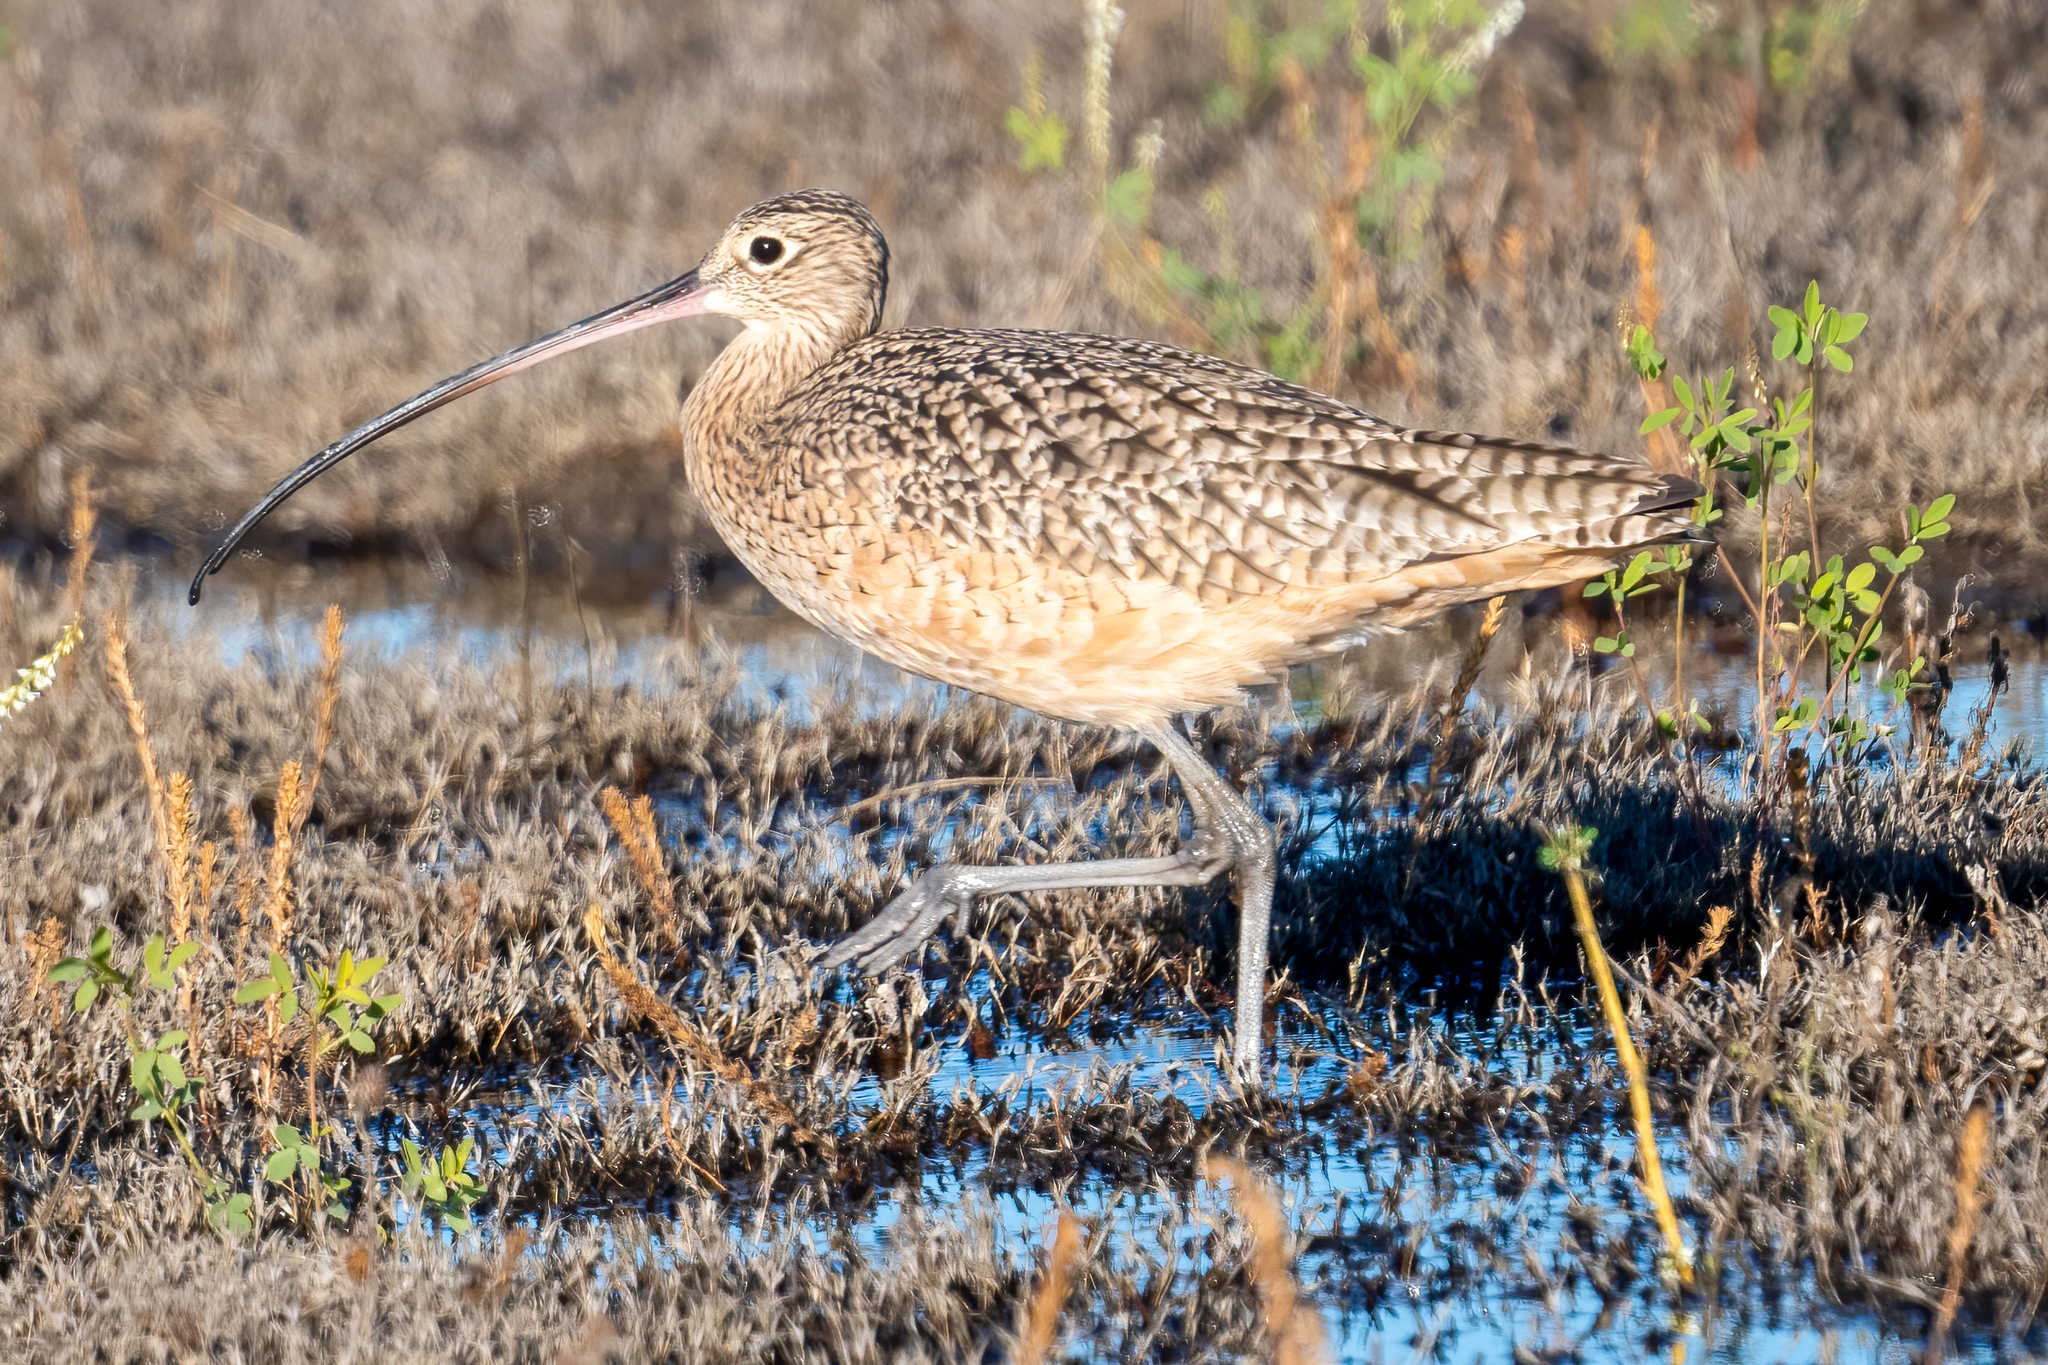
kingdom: Animalia
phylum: Chordata
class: Aves
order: Charadriiformes
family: Scolopacidae
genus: Numenius
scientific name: Numenius americanus
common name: Long-billed curlew
